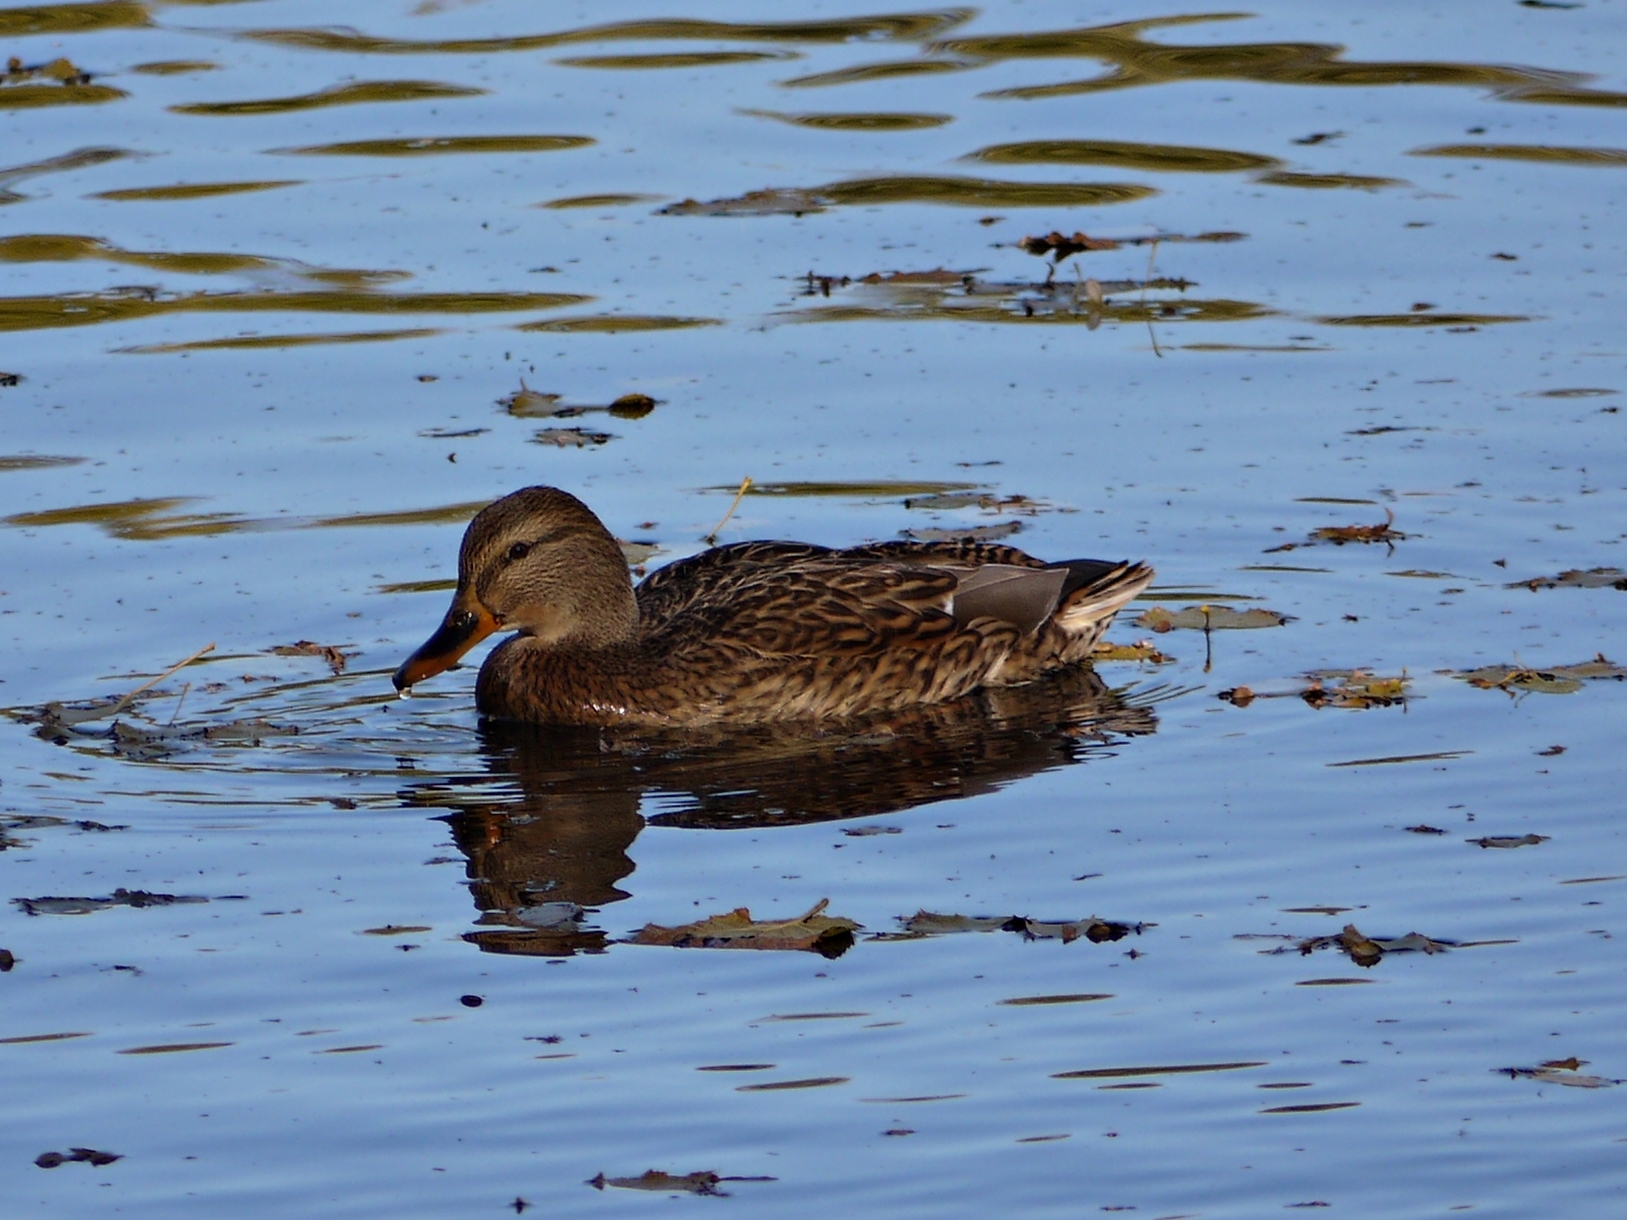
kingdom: Animalia
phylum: Chordata
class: Aves
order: Anseriformes
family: Anatidae
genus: Anas
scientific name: Anas platyrhynchos
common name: Mallard
